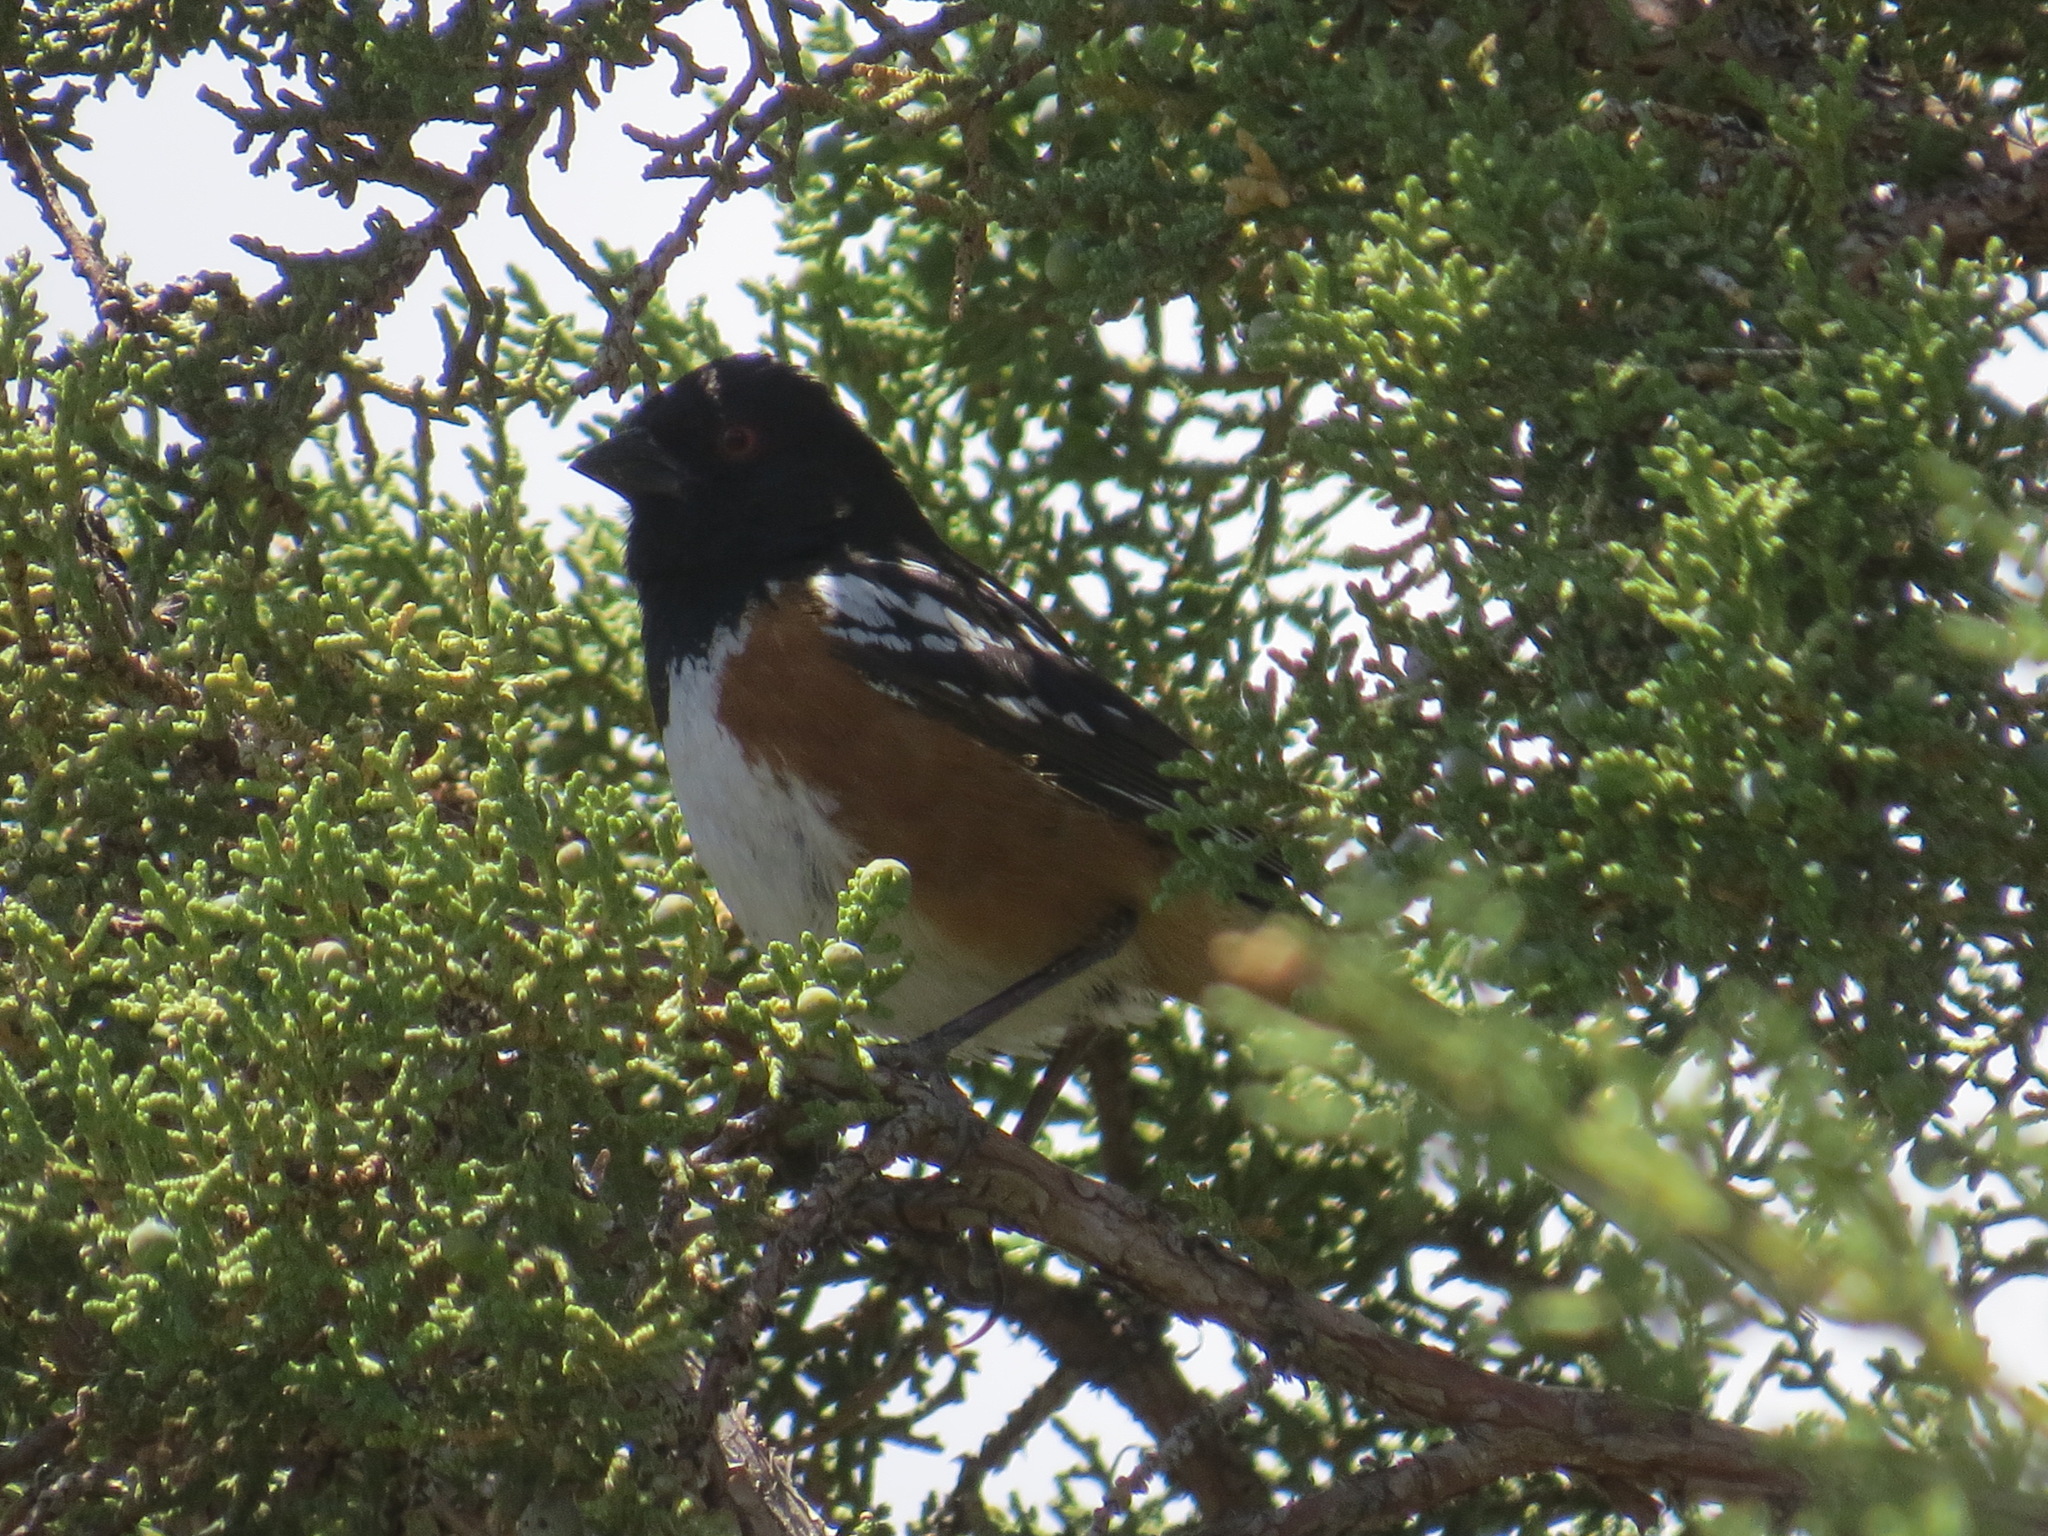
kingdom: Animalia
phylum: Chordata
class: Aves
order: Passeriformes
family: Passerellidae
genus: Pipilo
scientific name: Pipilo maculatus
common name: Spotted towhee
